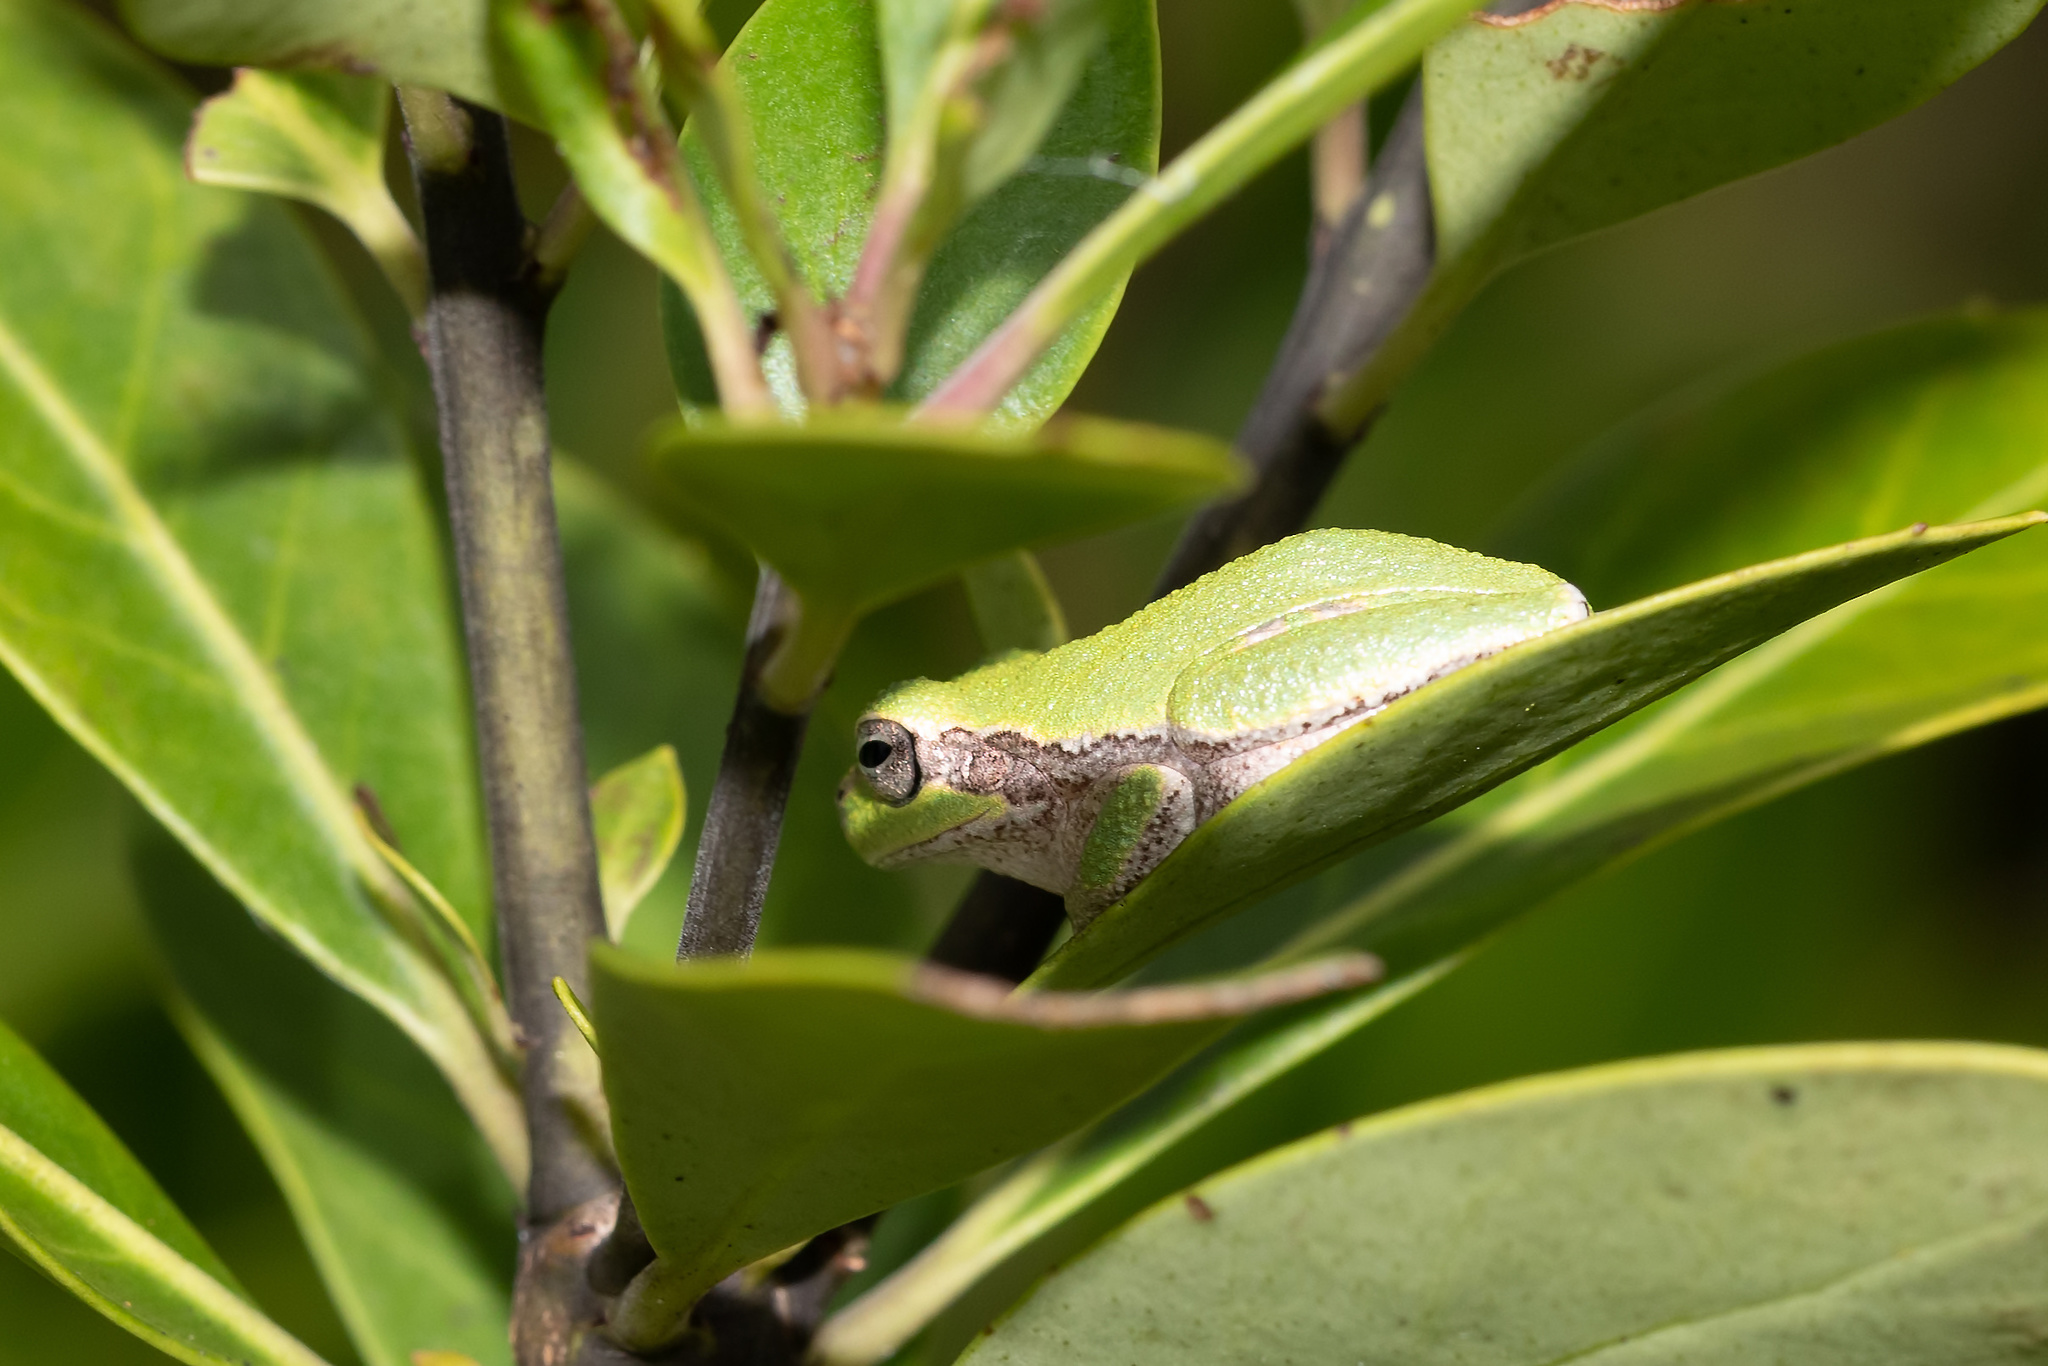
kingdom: Animalia
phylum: Chordata
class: Amphibia
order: Anura
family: Hylidae
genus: Hyla
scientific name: Hyla femoralis
